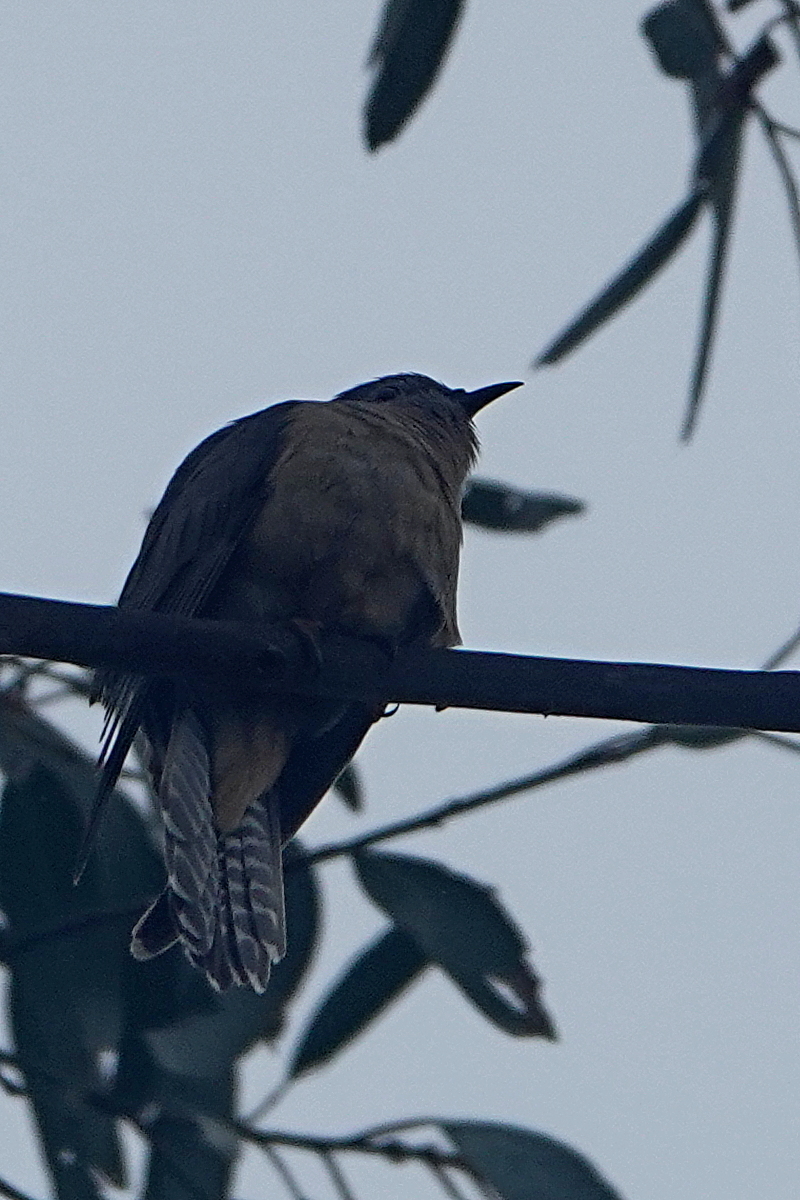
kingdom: Animalia
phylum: Chordata
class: Aves
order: Cuculiformes
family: Cuculidae
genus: Cacomantis
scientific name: Cacomantis variolosus
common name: Brush cuckoo
